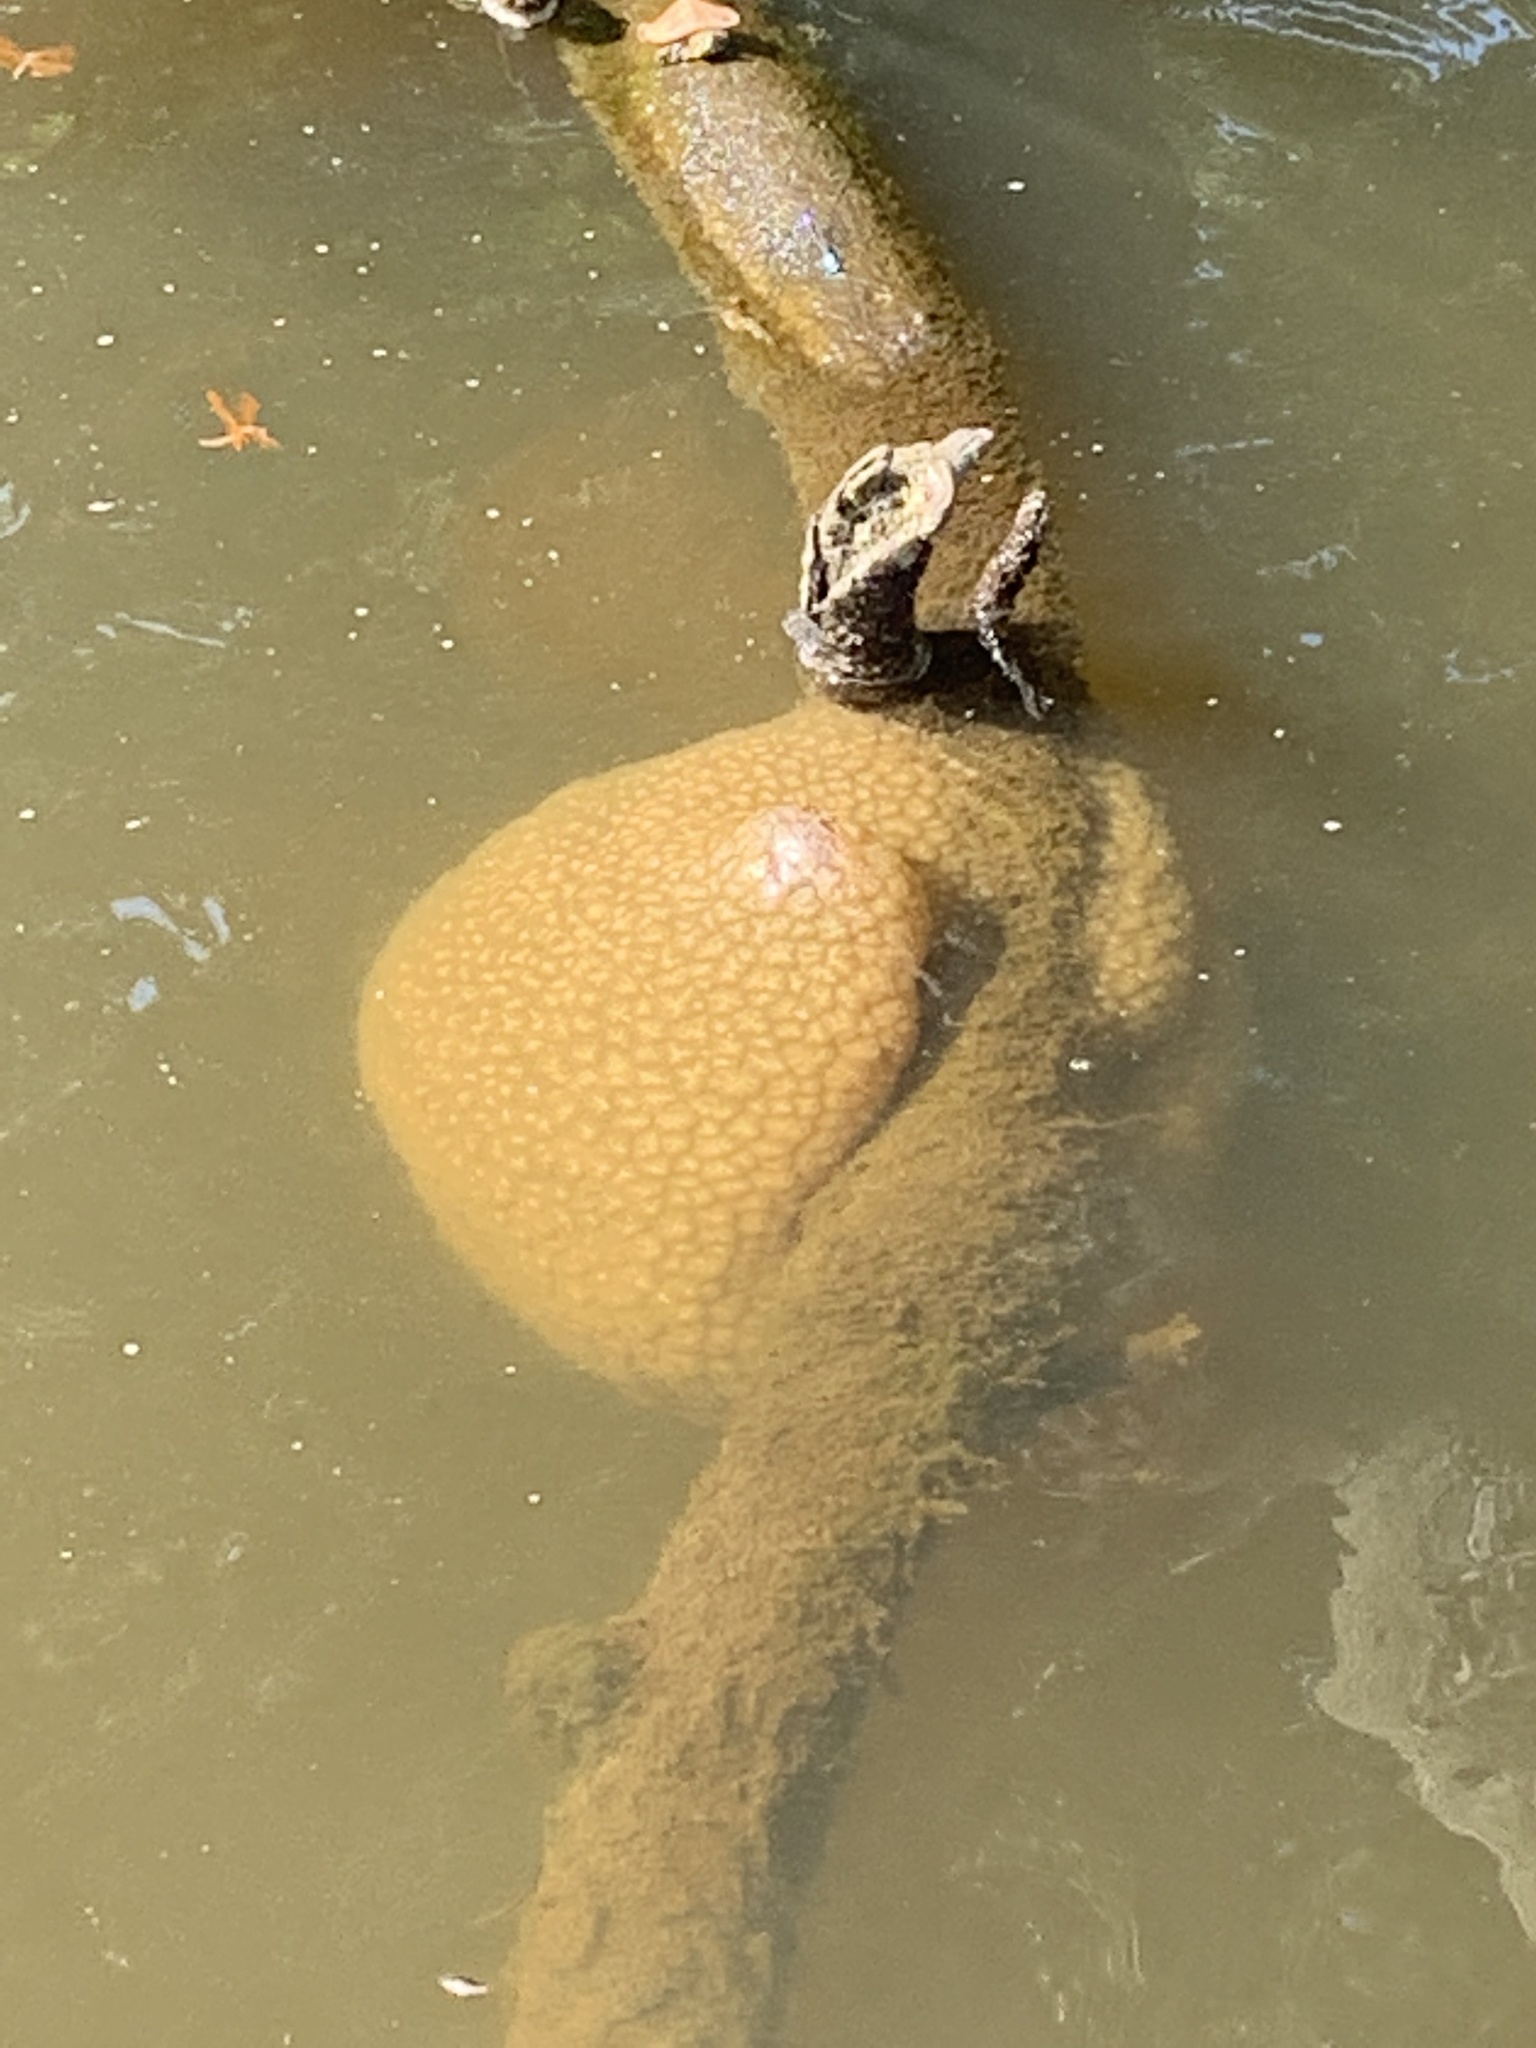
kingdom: Animalia
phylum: Bryozoa
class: Phylactolaemata
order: Plumatellida
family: Pectinatellidae
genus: Pectinatella
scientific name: Pectinatella magnifica
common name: Magnificent bryozoan
